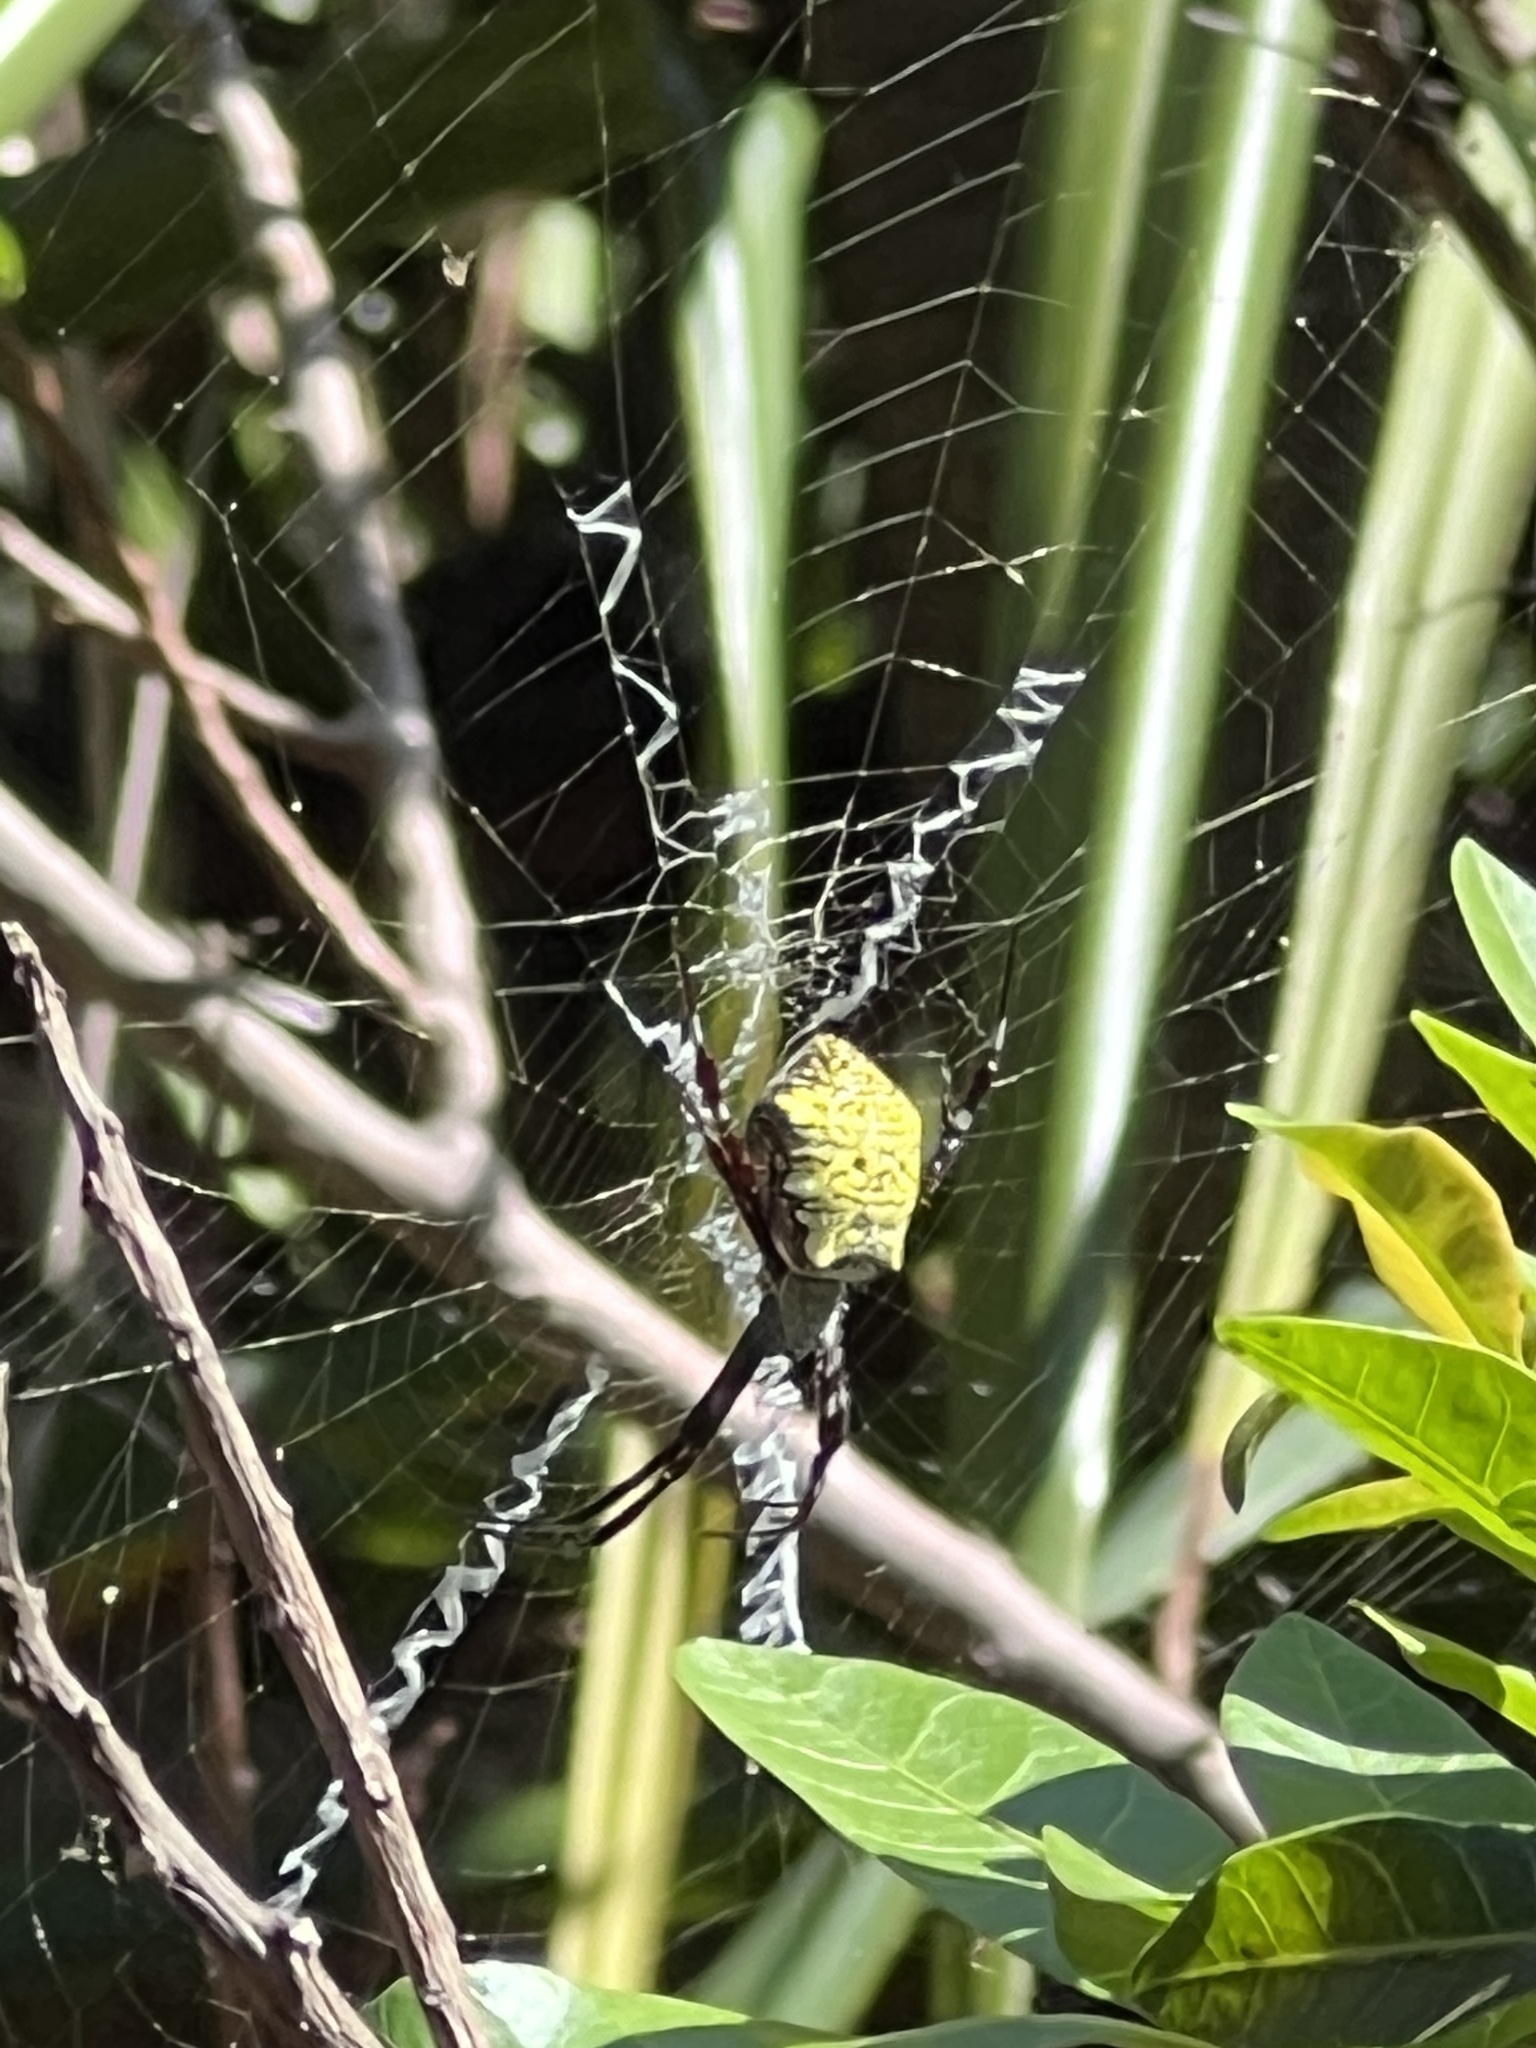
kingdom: Animalia
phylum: Arthropoda
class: Arachnida
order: Araneae
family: Araneidae
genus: Argiope
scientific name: Argiope appensa
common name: Garden spider
